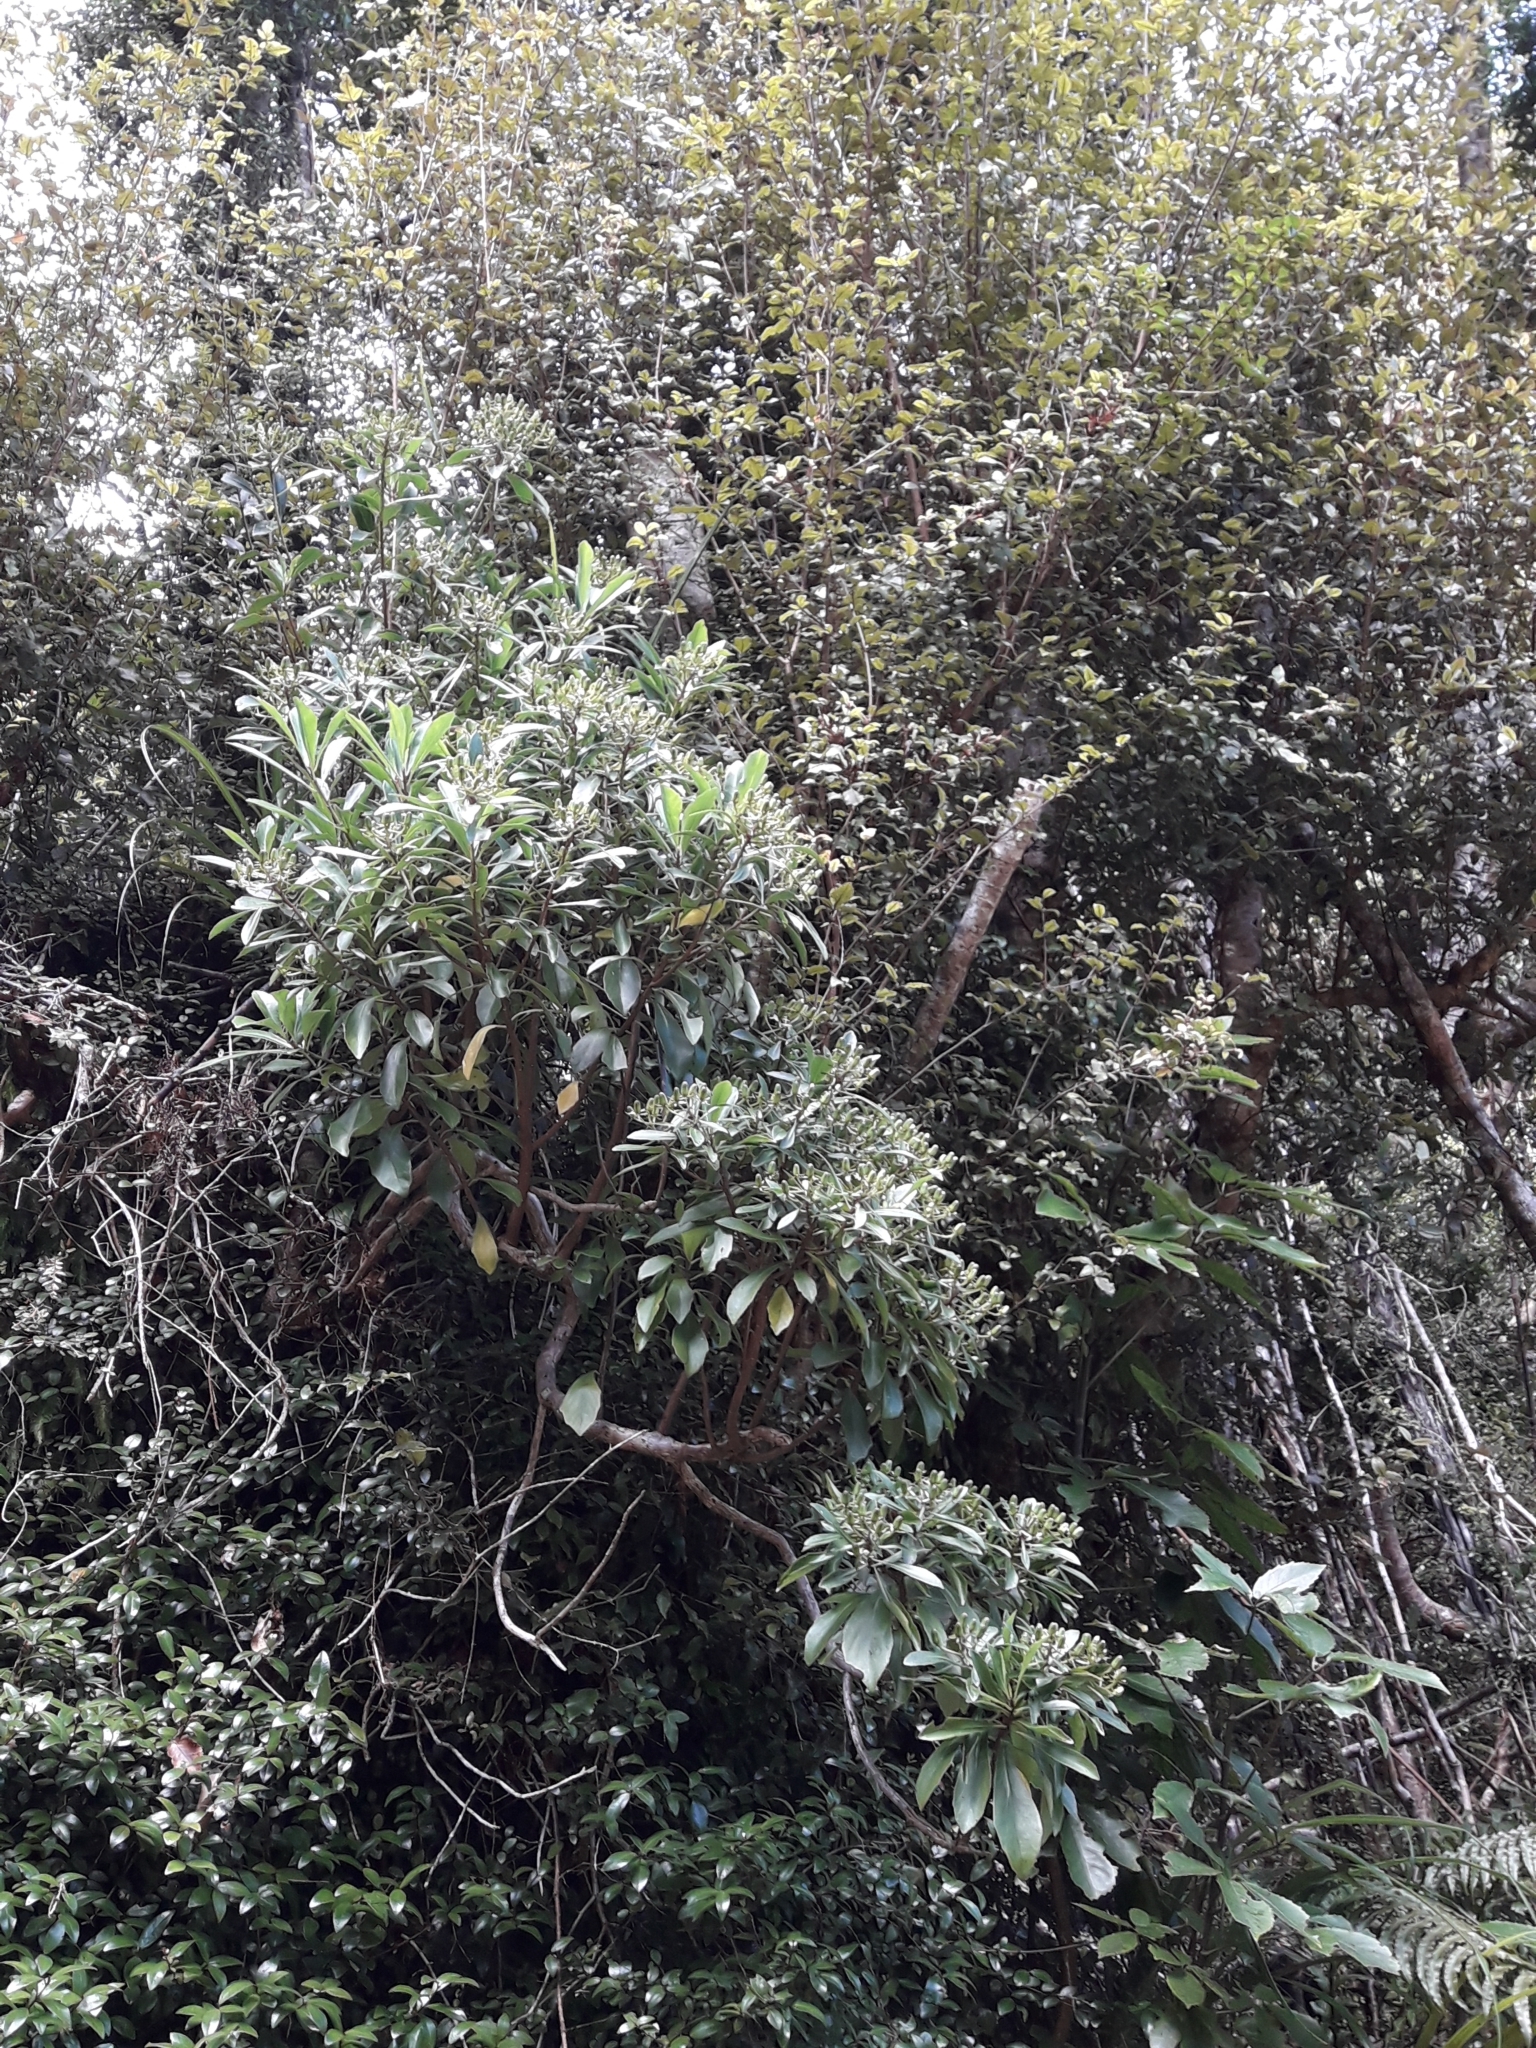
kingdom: Plantae
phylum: Tracheophyta
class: Magnoliopsida
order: Asterales
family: Asteraceae
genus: Brachyglottis
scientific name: Brachyglottis kirkii
